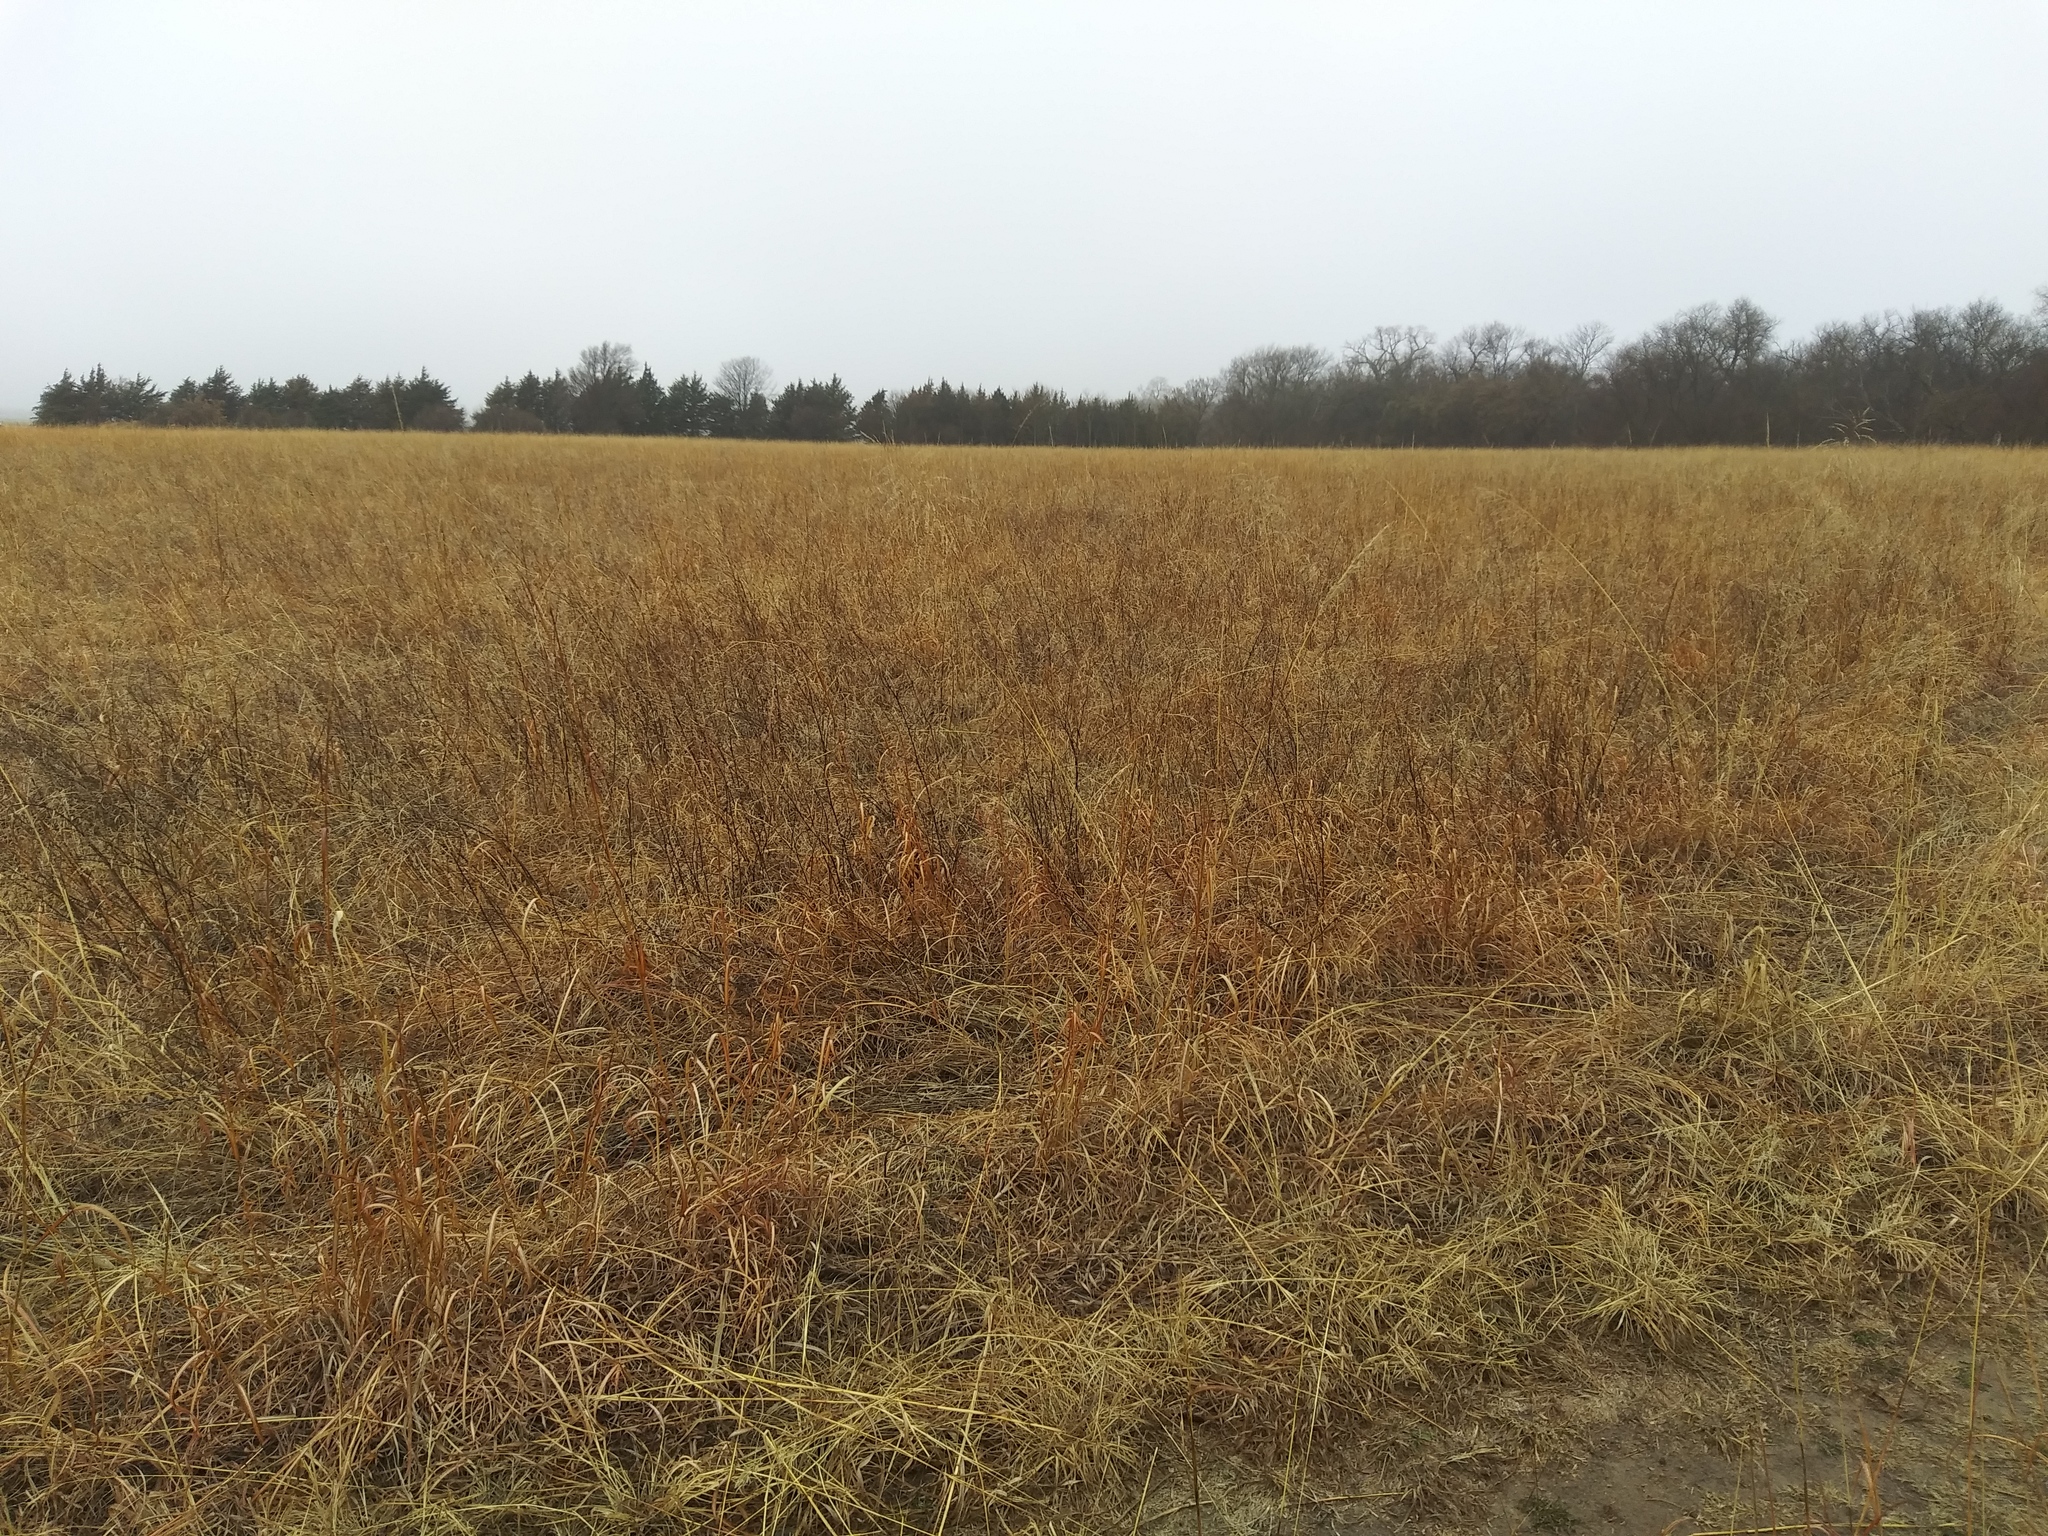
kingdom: Plantae
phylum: Tracheophyta
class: Liliopsida
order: Poales
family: Poaceae
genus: Sorghastrum
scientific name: Sorghastrum nutans
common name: Indian grass
